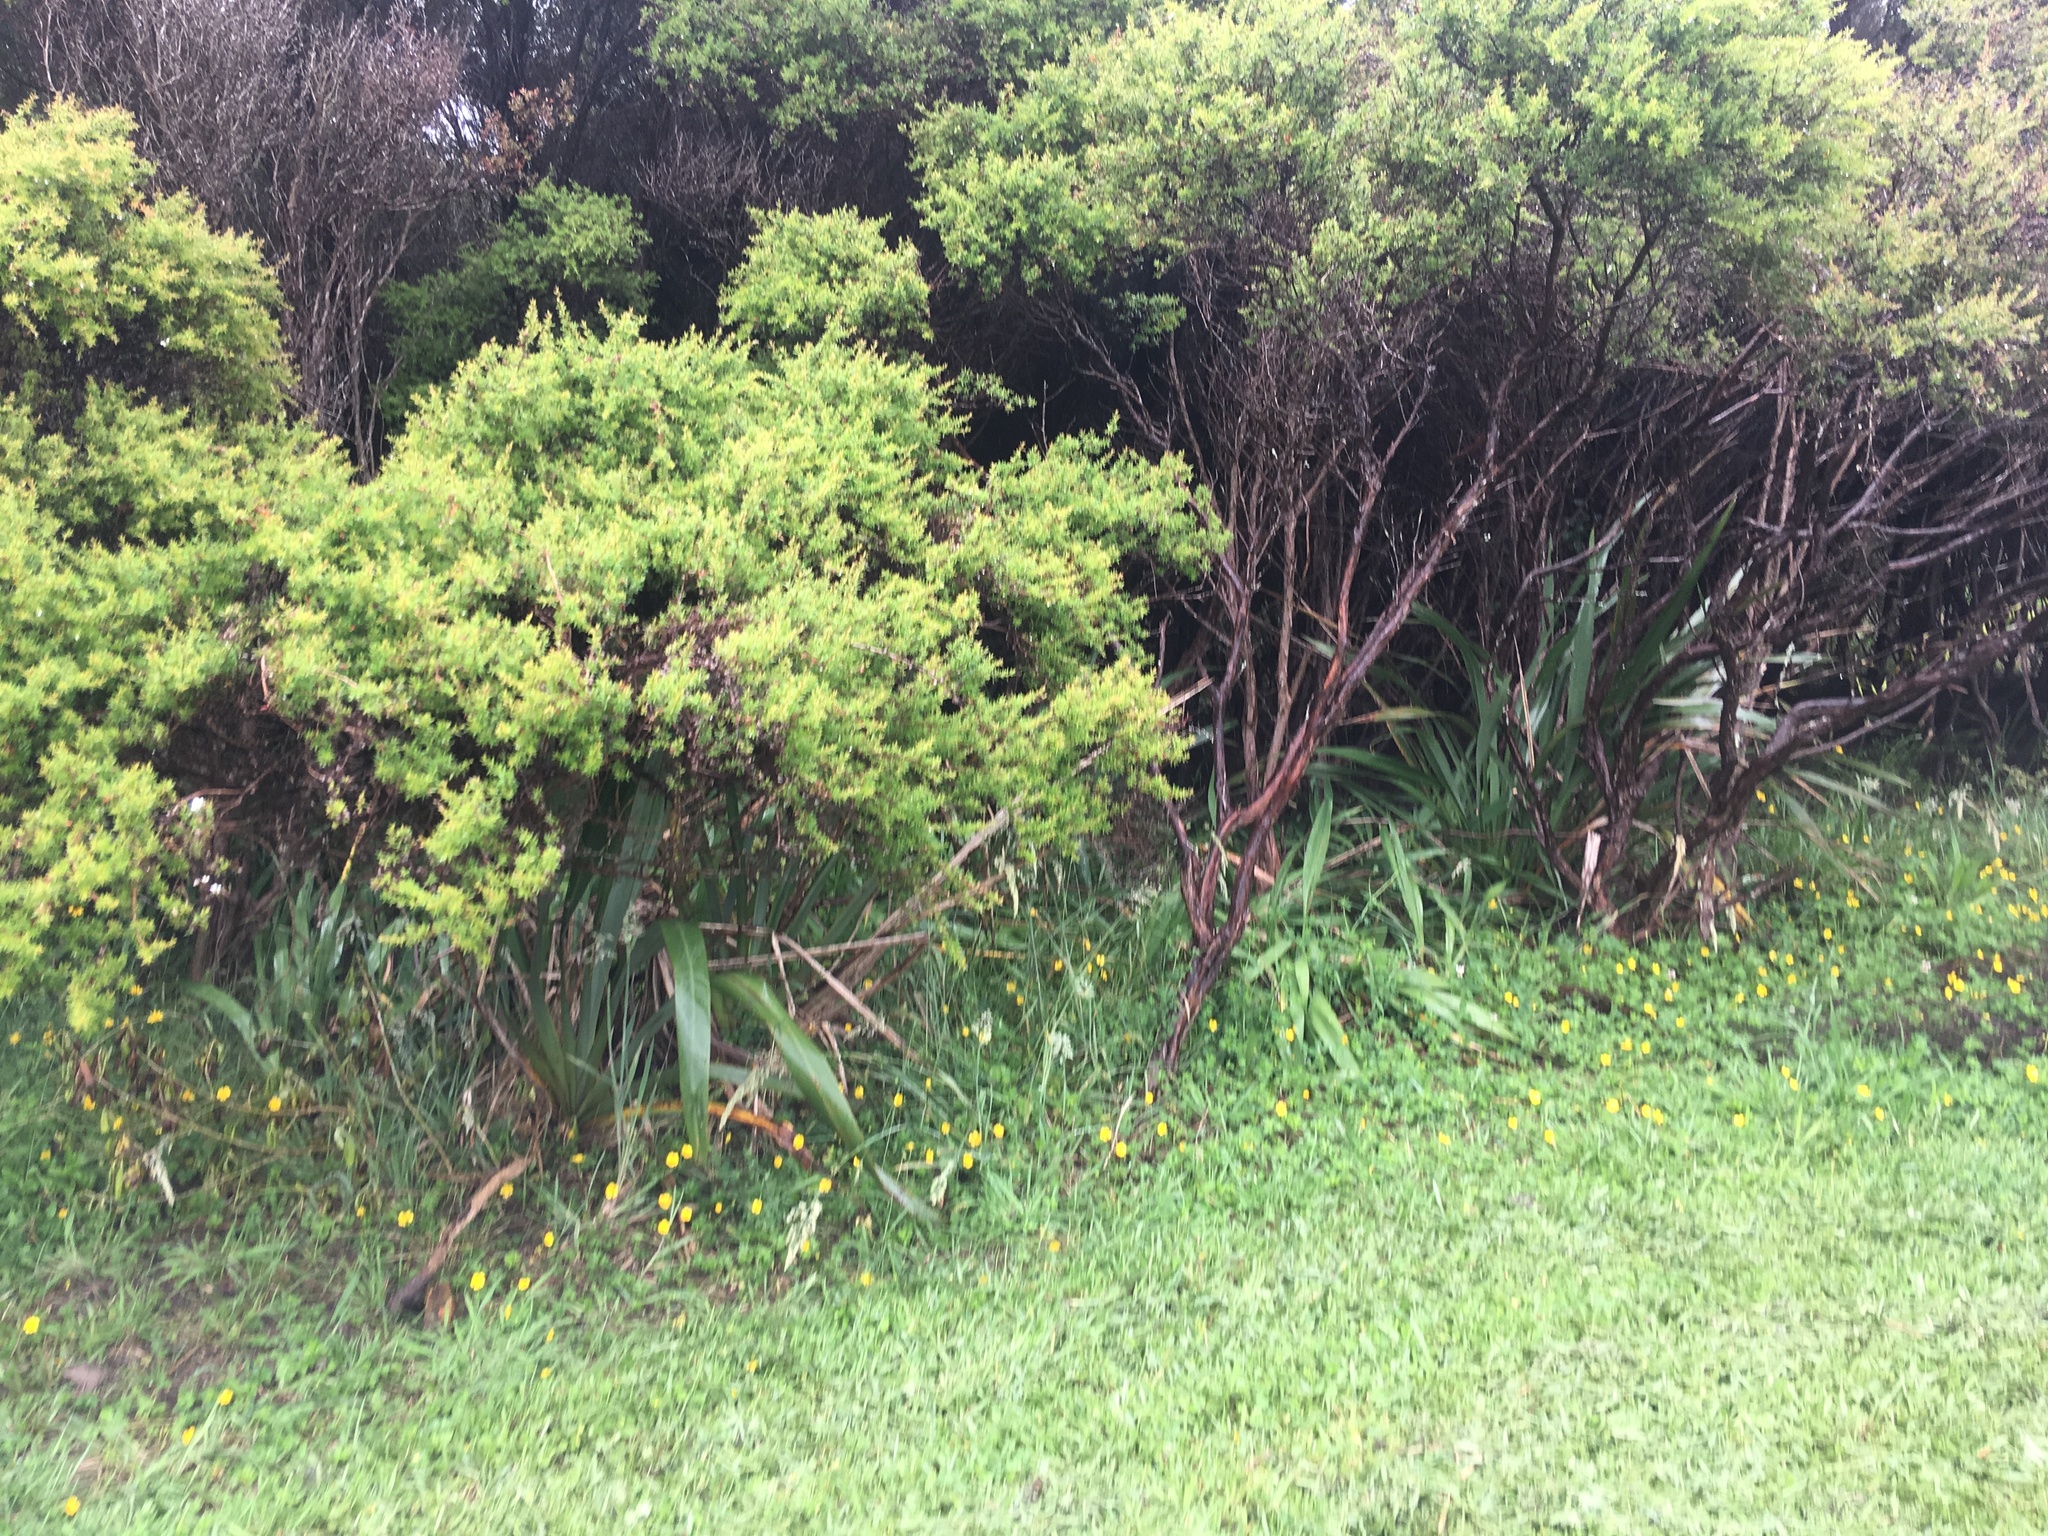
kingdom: Plantae
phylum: Tracheophyta
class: Magnoliopsida
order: Myrtales
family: Myrtaceae
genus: Leptospermum
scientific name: Leptospermum scoparium
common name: Broom tea-tree
